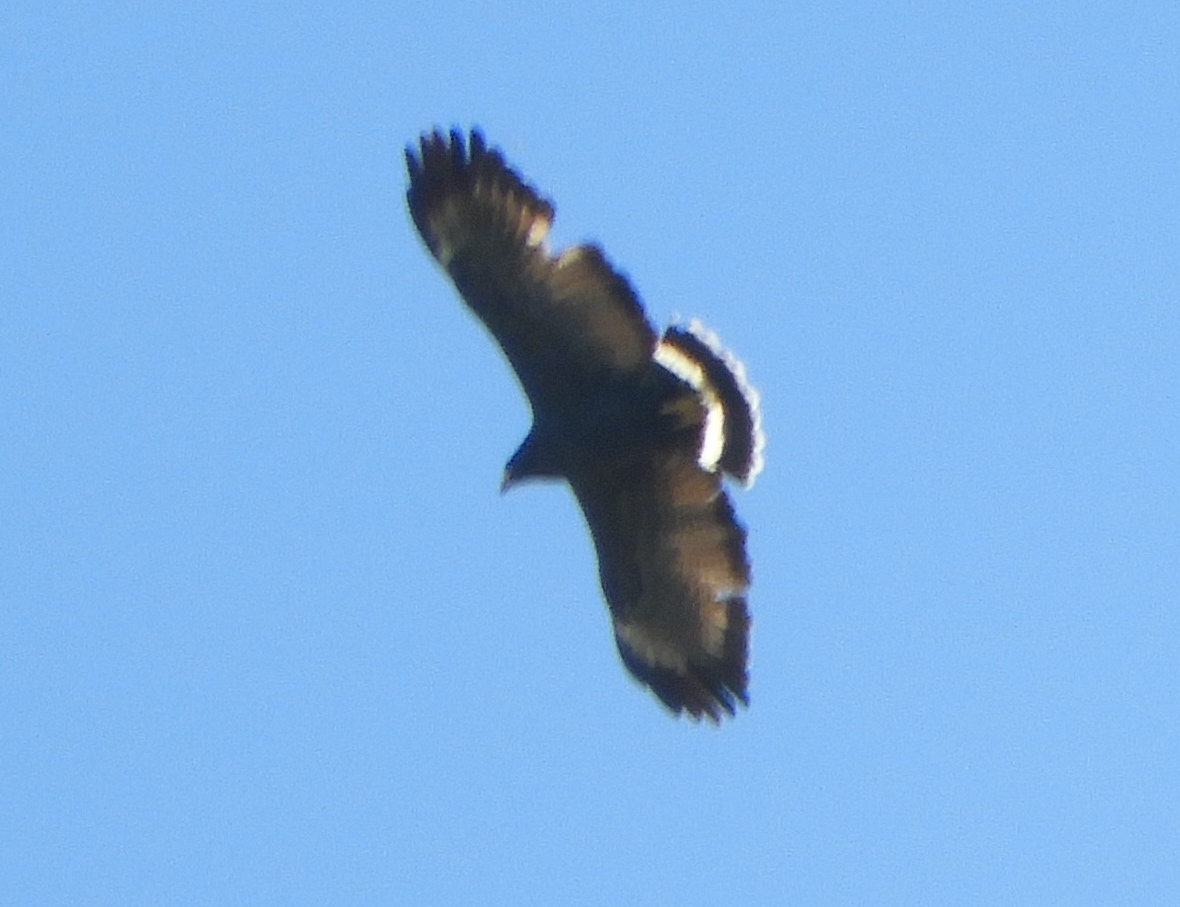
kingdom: Animalia
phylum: Chordata
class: Aves
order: Accipitriformes
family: Accipitridae
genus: Buteogallus
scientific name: Buteogallus anthracinus
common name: Common black hawk
